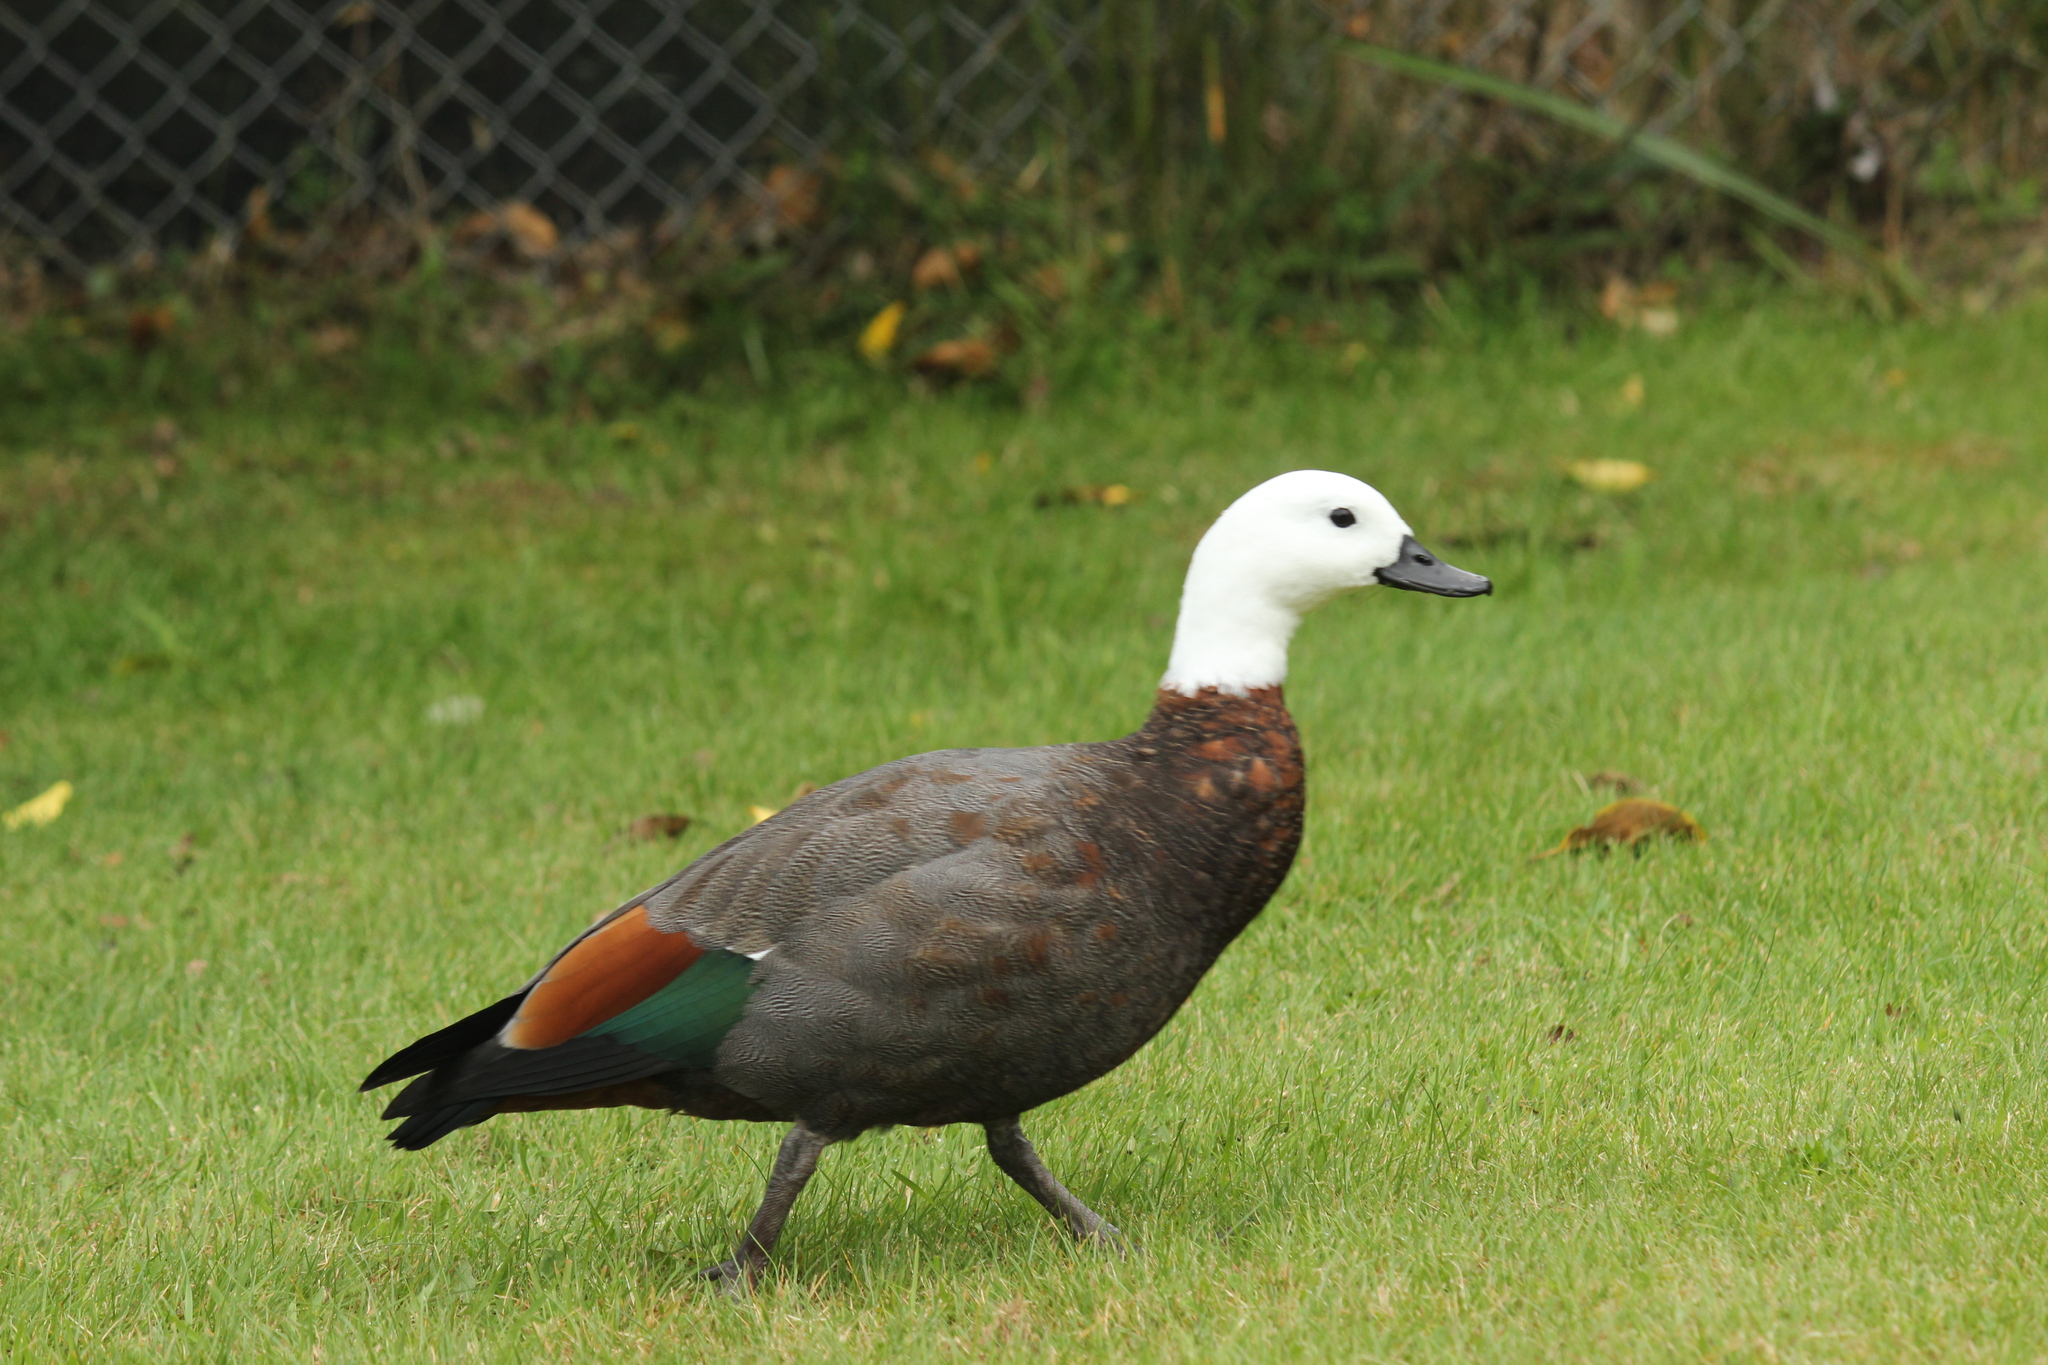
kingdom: Animalia
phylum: Chordata
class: Aves
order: Anseriformes
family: Anatidae
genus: Tadorna
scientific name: Tadorna variegata
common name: Paradise shelduck
